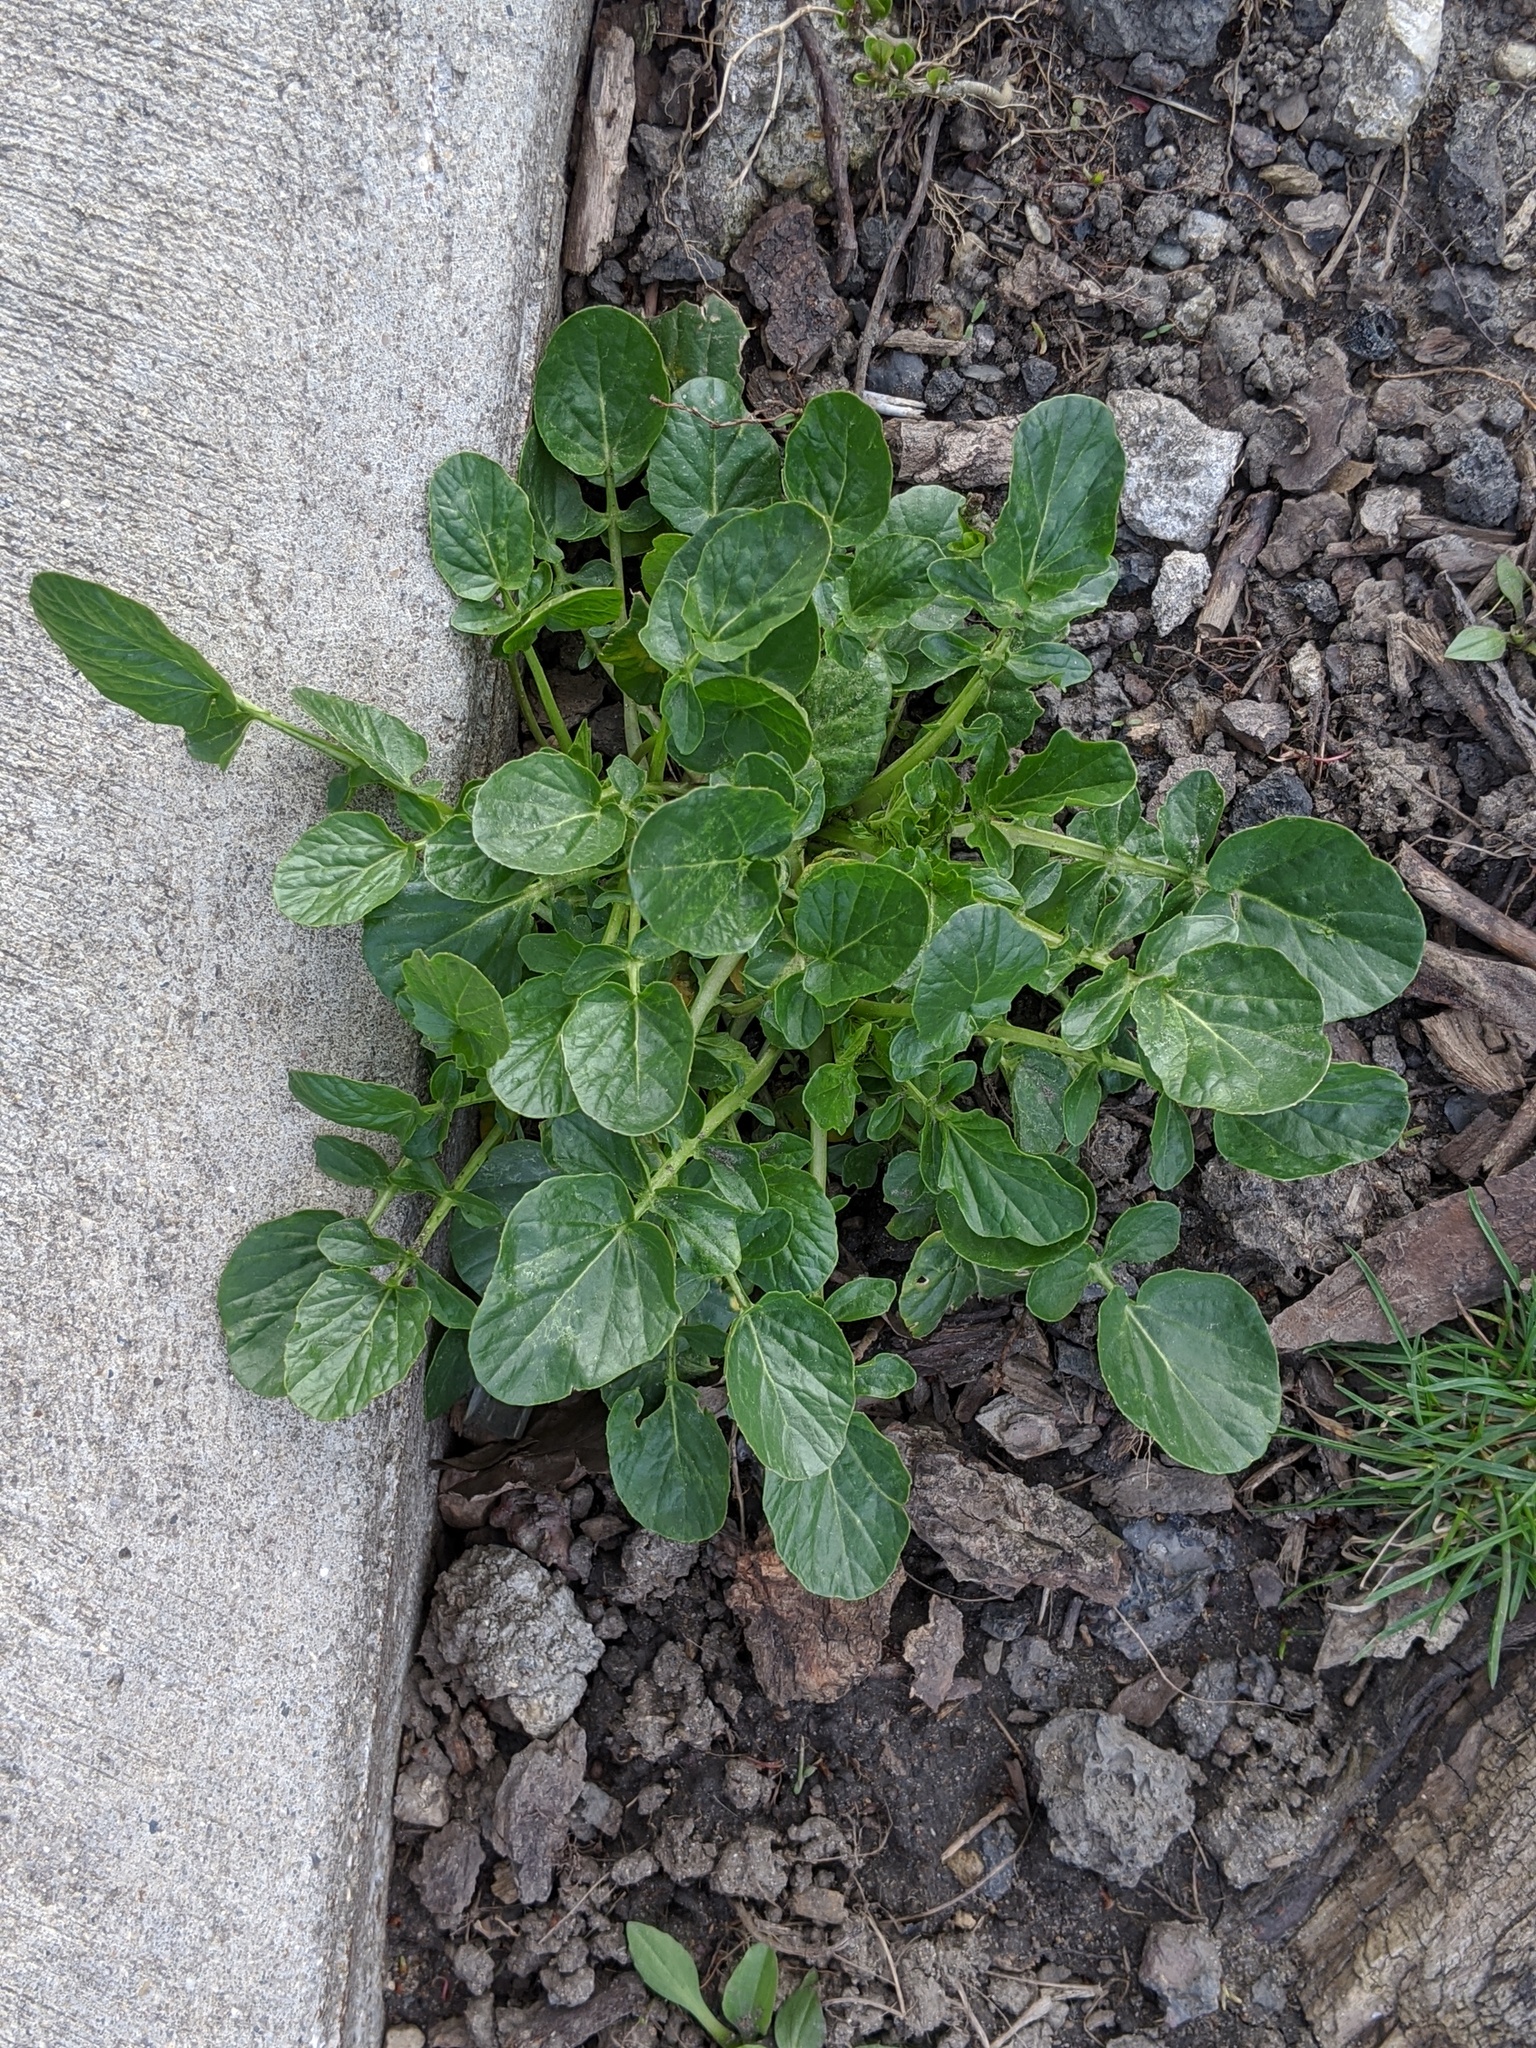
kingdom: Plantae
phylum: Tracheophyta
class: Magnoliopsida
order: Brassicales
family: Brassicaceae
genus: Barbarea
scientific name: Barbarea vulgaris
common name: Cressy-greens
